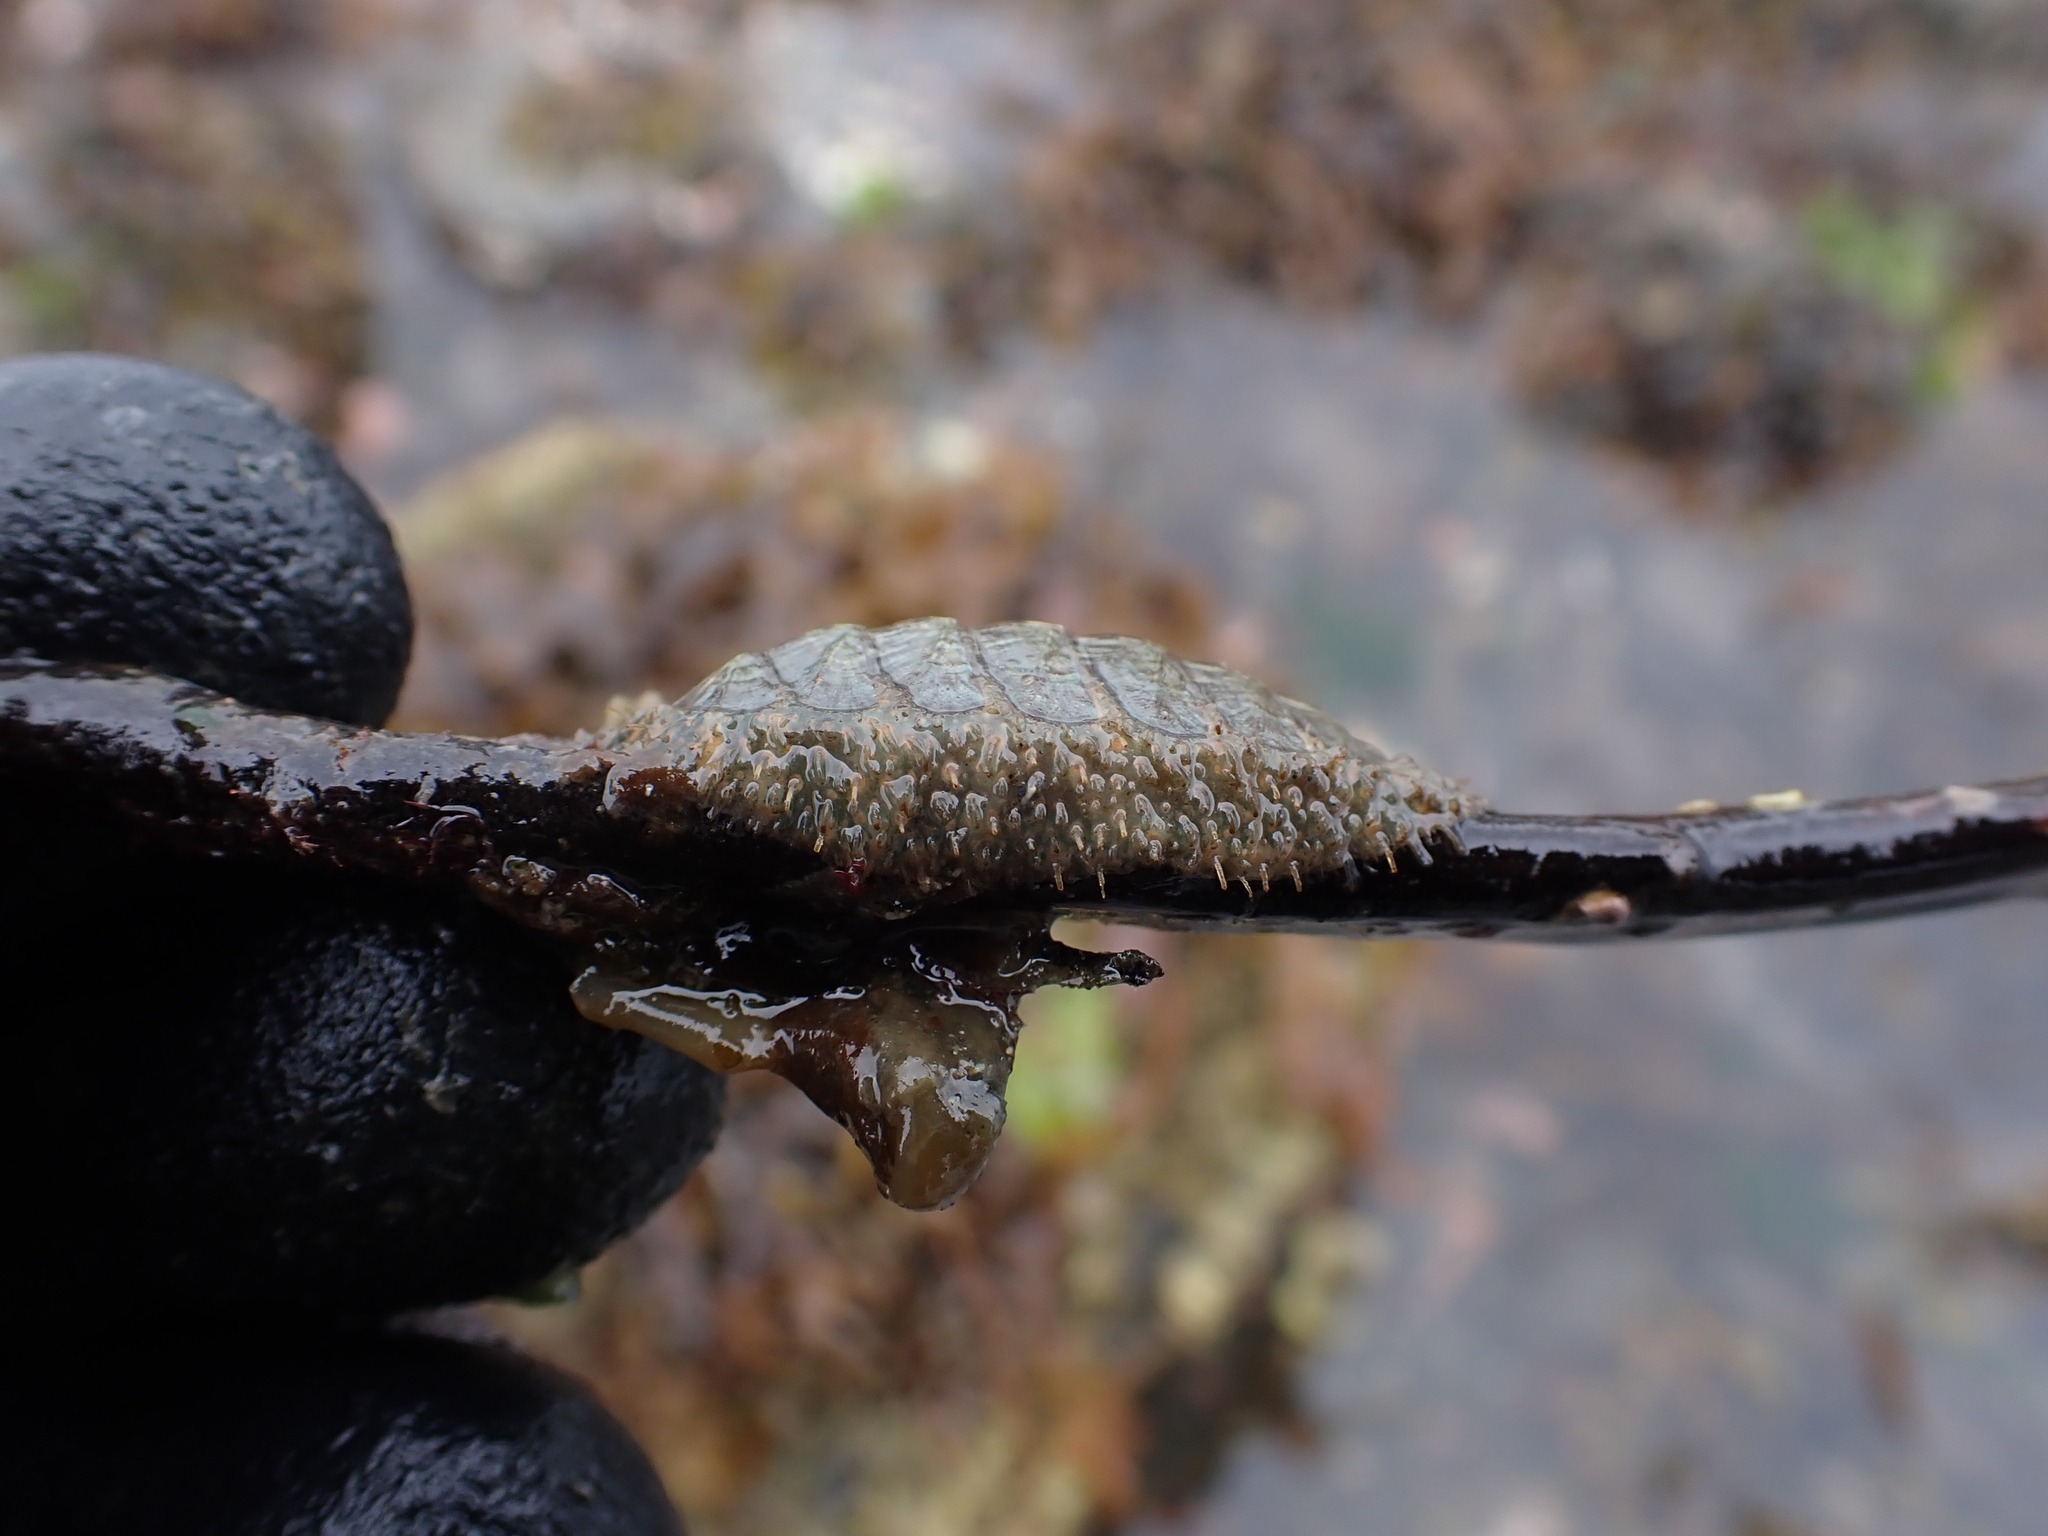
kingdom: Animalia
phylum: Mollusca
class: Polyplacophora
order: Chitonida
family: Mopaliidae
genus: Mopalia
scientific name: Mopalia lignosa
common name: Woody chiton
